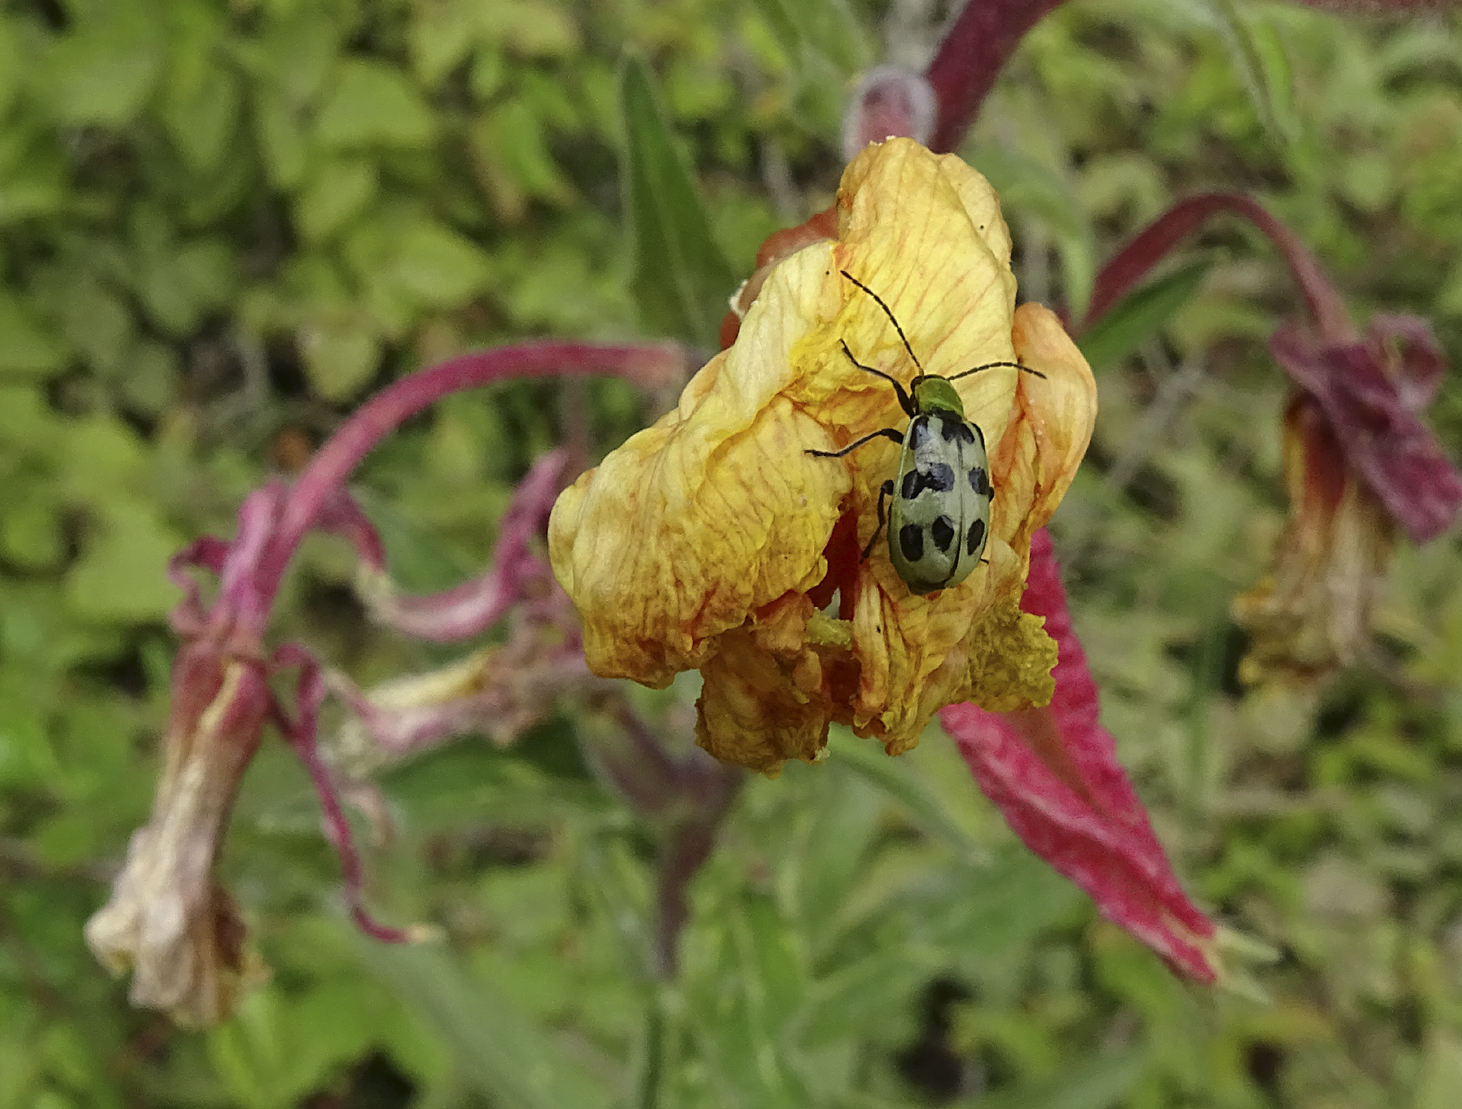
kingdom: Animalia
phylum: Arthropoda
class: Insecta
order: Coleoptera
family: Chrysomelidae
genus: Diabrotica
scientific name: Diabrotica undecimpunctata
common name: Spotted cucumber beetle
